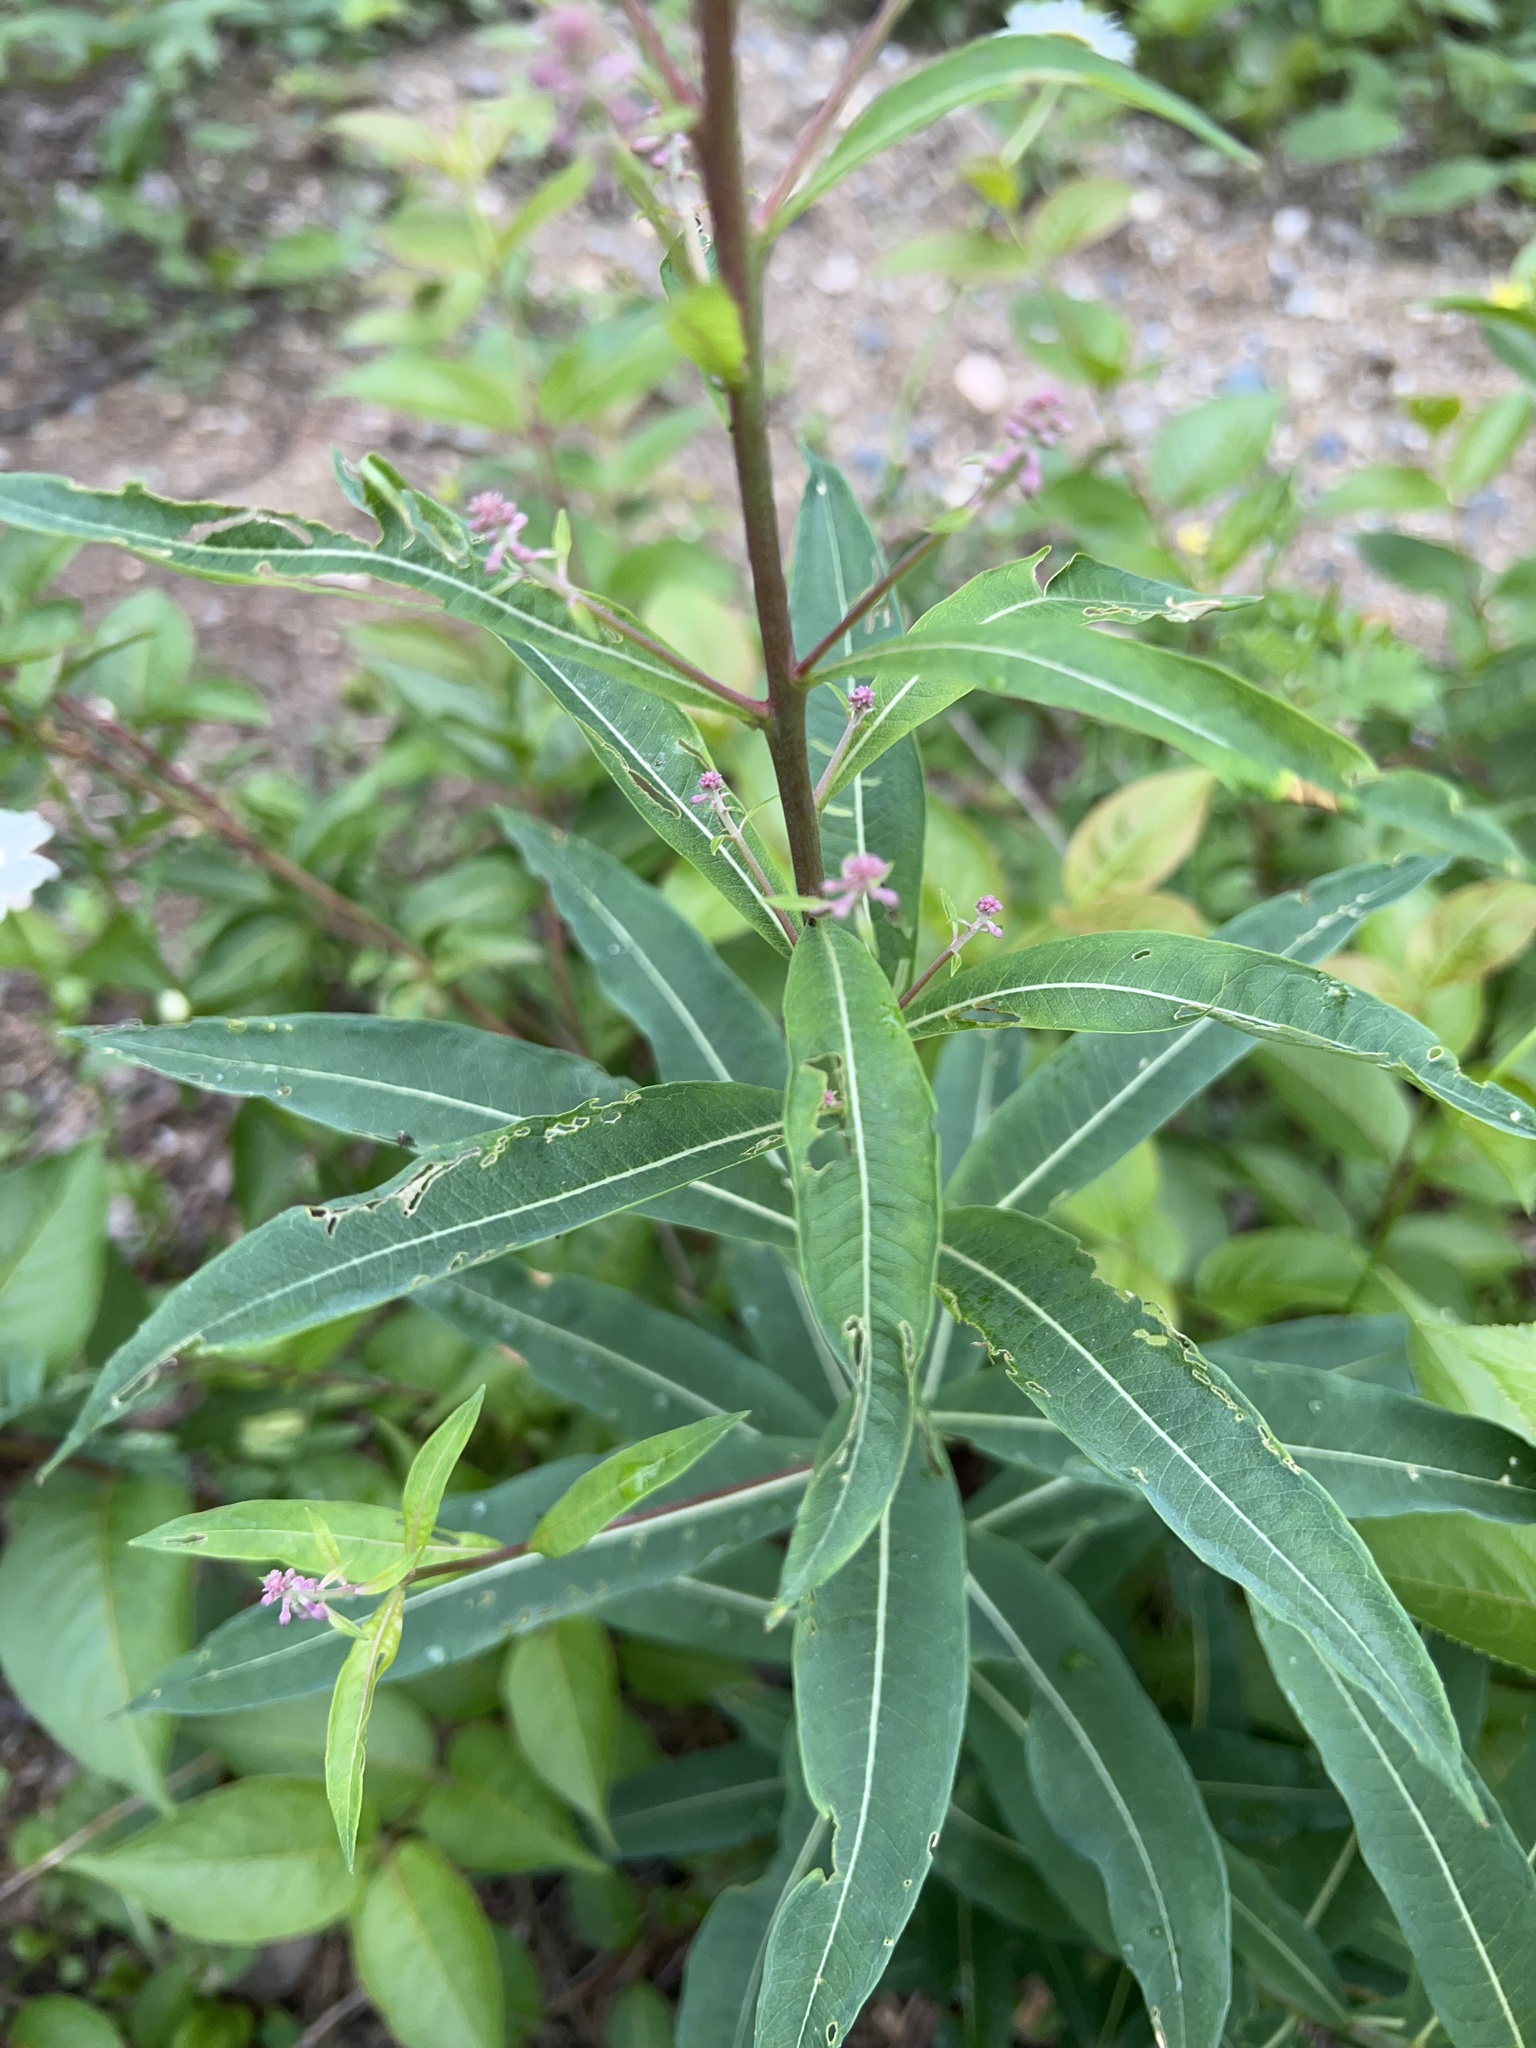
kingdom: Plantae
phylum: Tracheophyta
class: Magnoliopsida
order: Myrtales
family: Onagraceae
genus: Chamaenerion
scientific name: Chamaenerion angustifolium
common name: Fireweed
